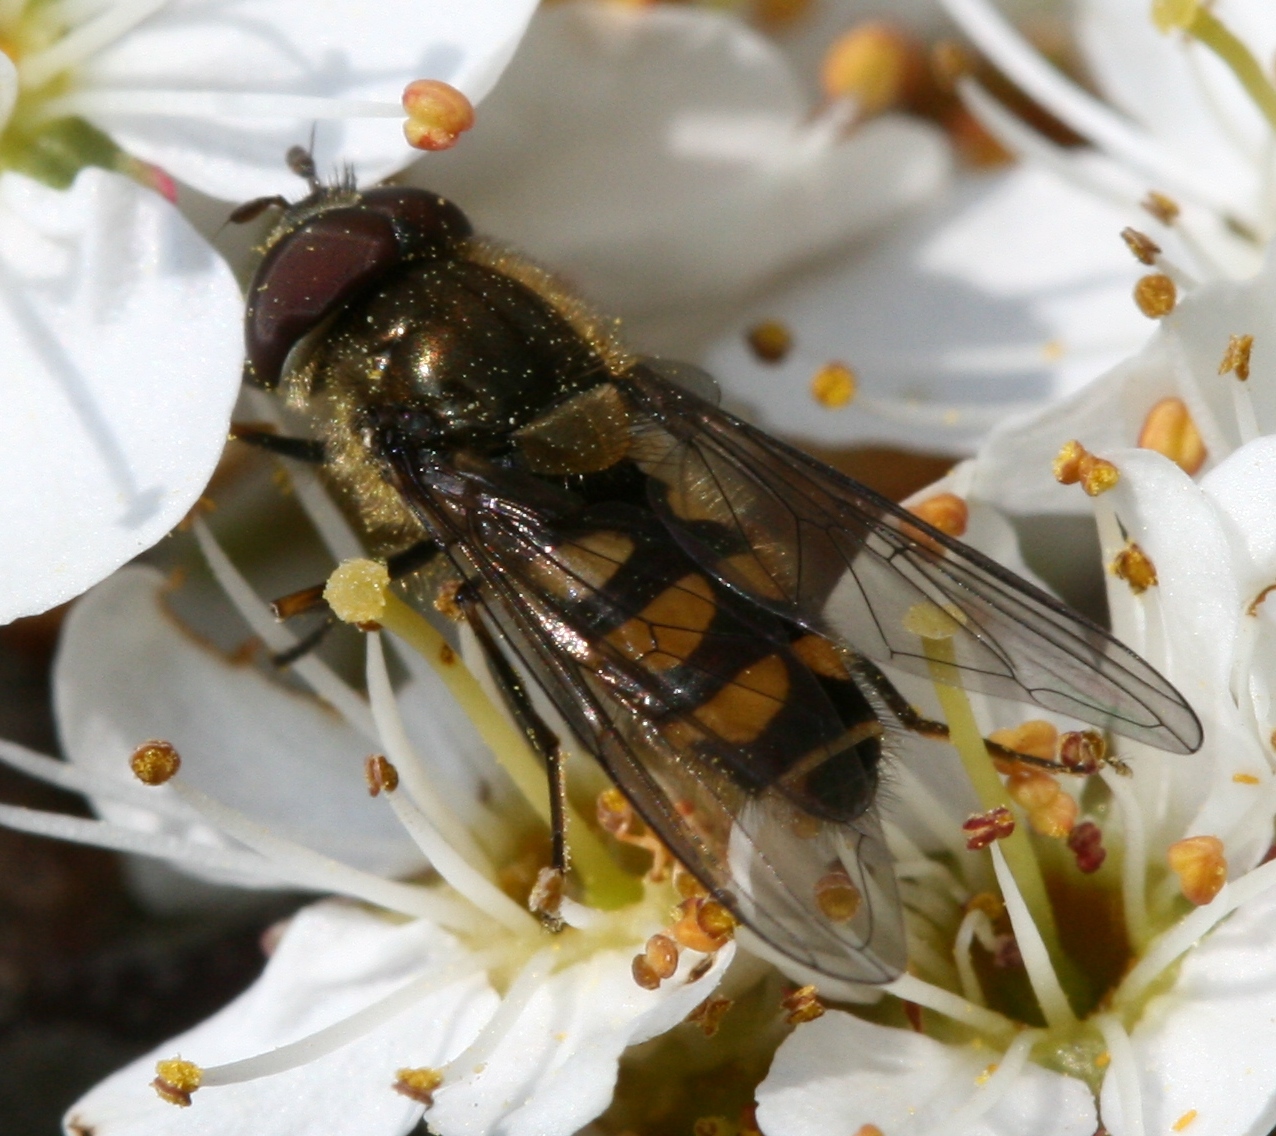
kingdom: Animalia
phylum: Arthropoda
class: Insecta
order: Diptera
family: Syrphidae
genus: Parasyrphus
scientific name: Parasyrphus punctulatus
